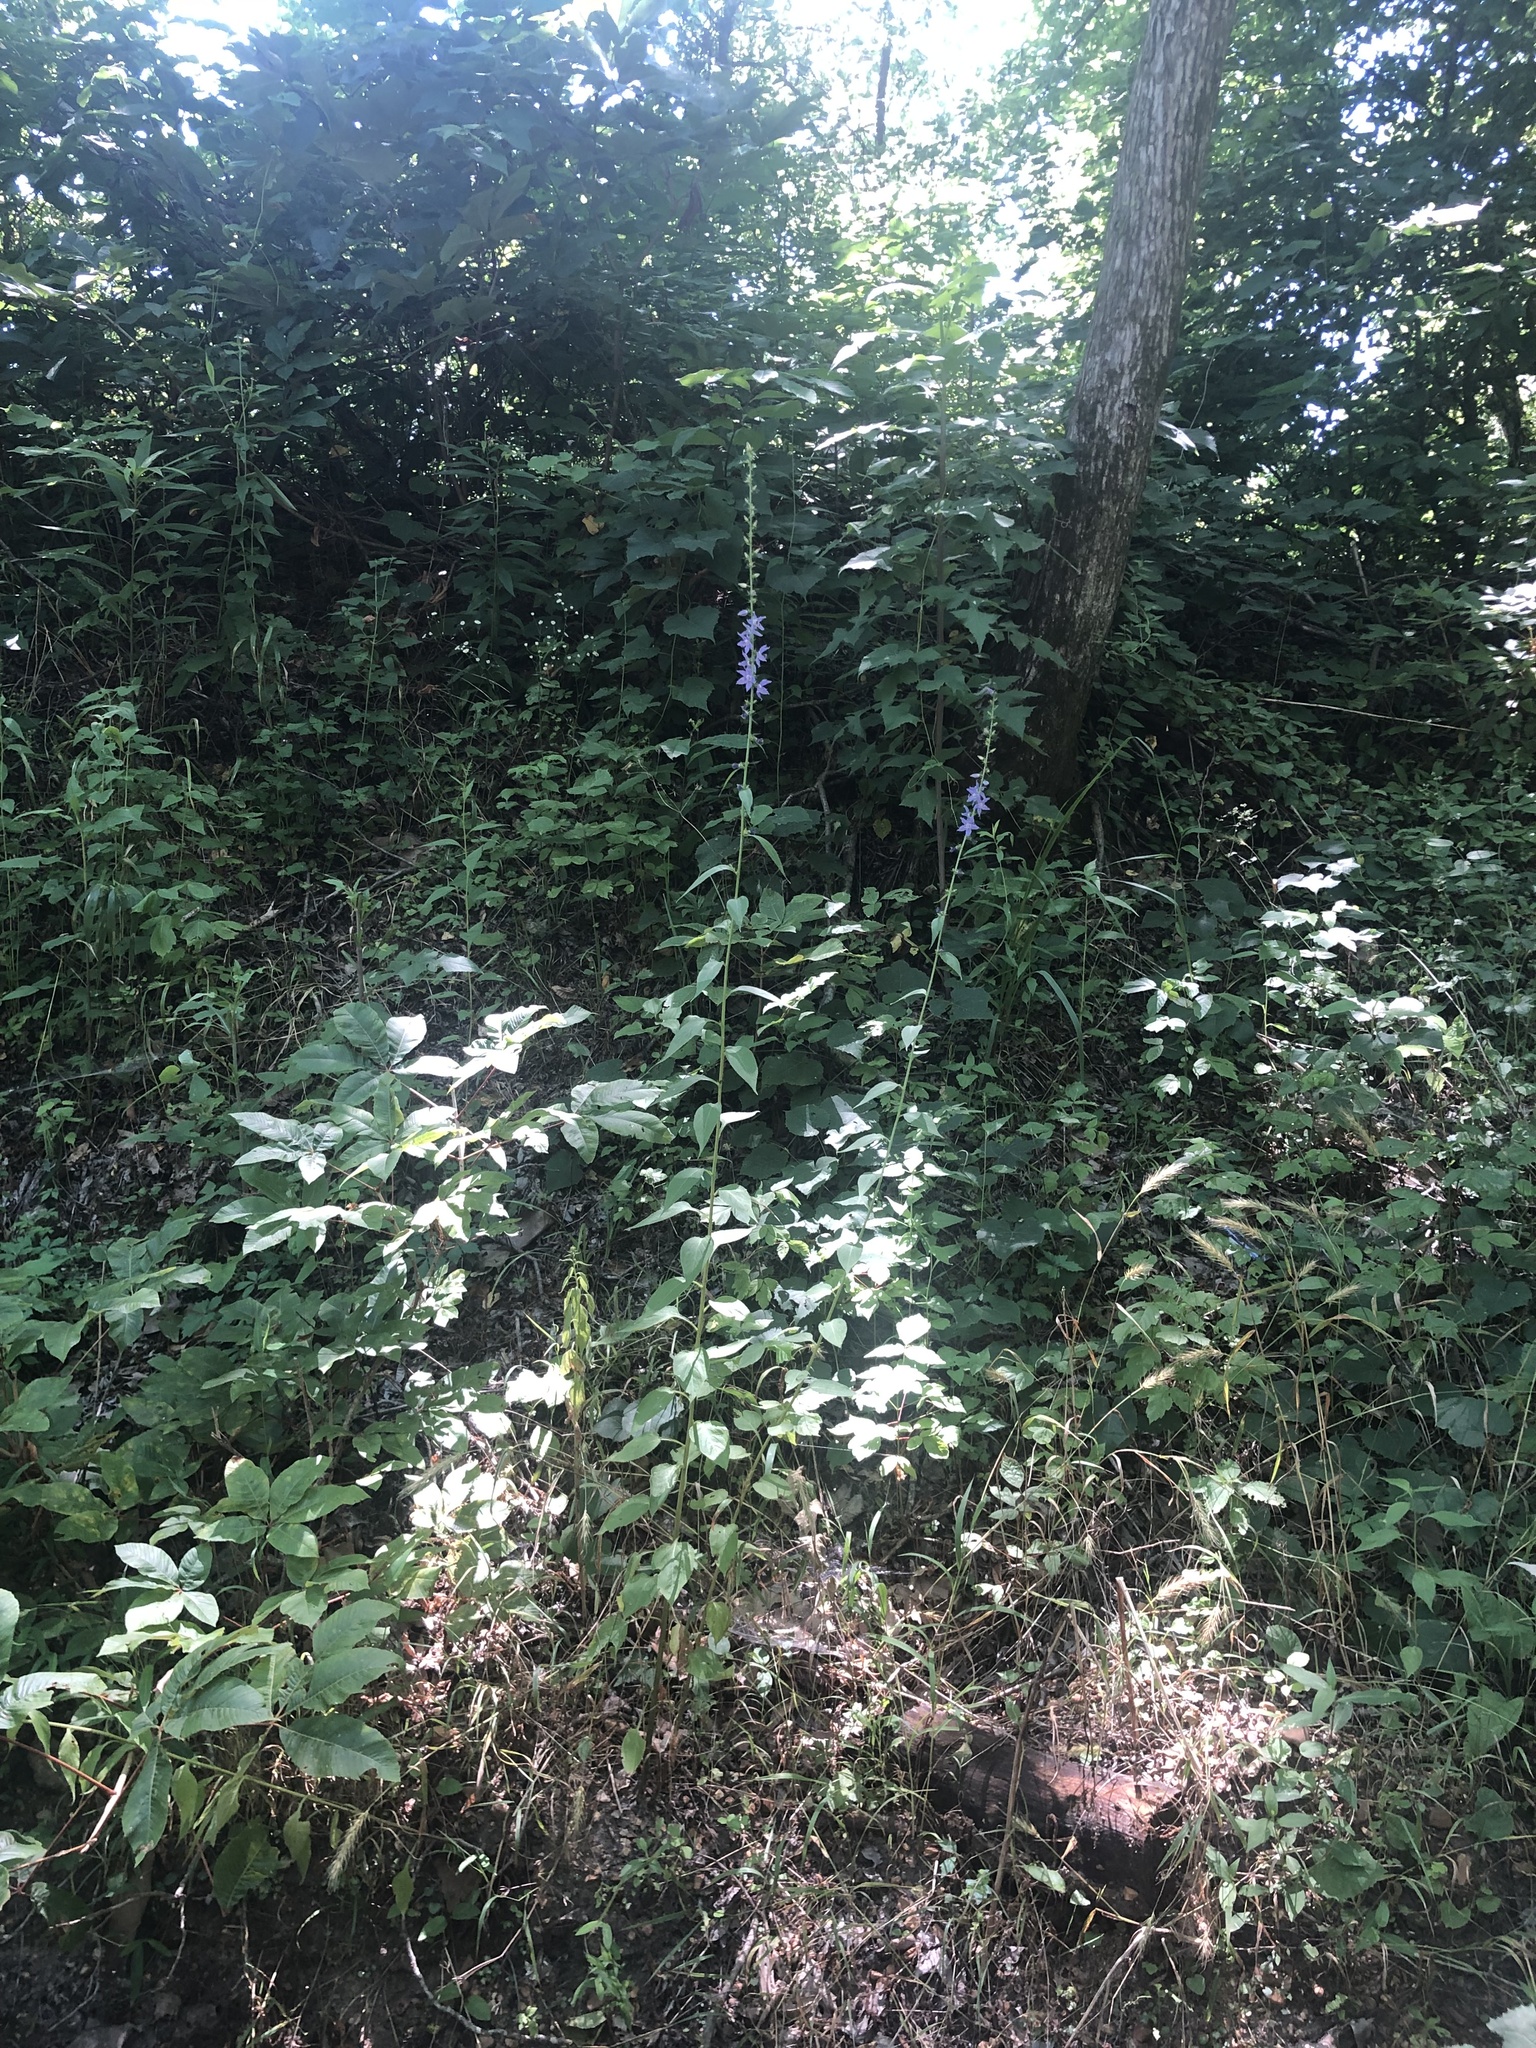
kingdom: Plantae
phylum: Tracheophyta
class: Magnoliopsida
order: Asterales
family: Campanulaceae
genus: Campanulastrum
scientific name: Campanulastrum americanum
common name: American bellflower
